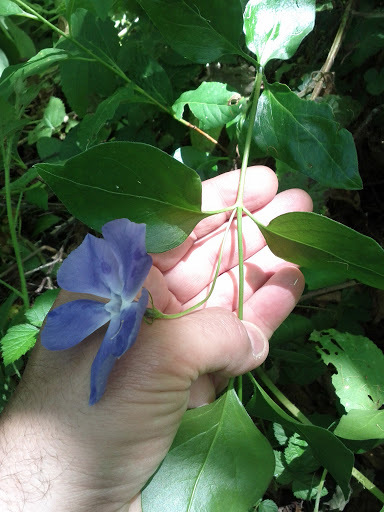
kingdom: Plantae
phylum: Tracheophyta
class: Magnoliopsida
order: Gentianales
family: Apocynaceae
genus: Vinca
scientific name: Vinca major
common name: Greater periwinkle
